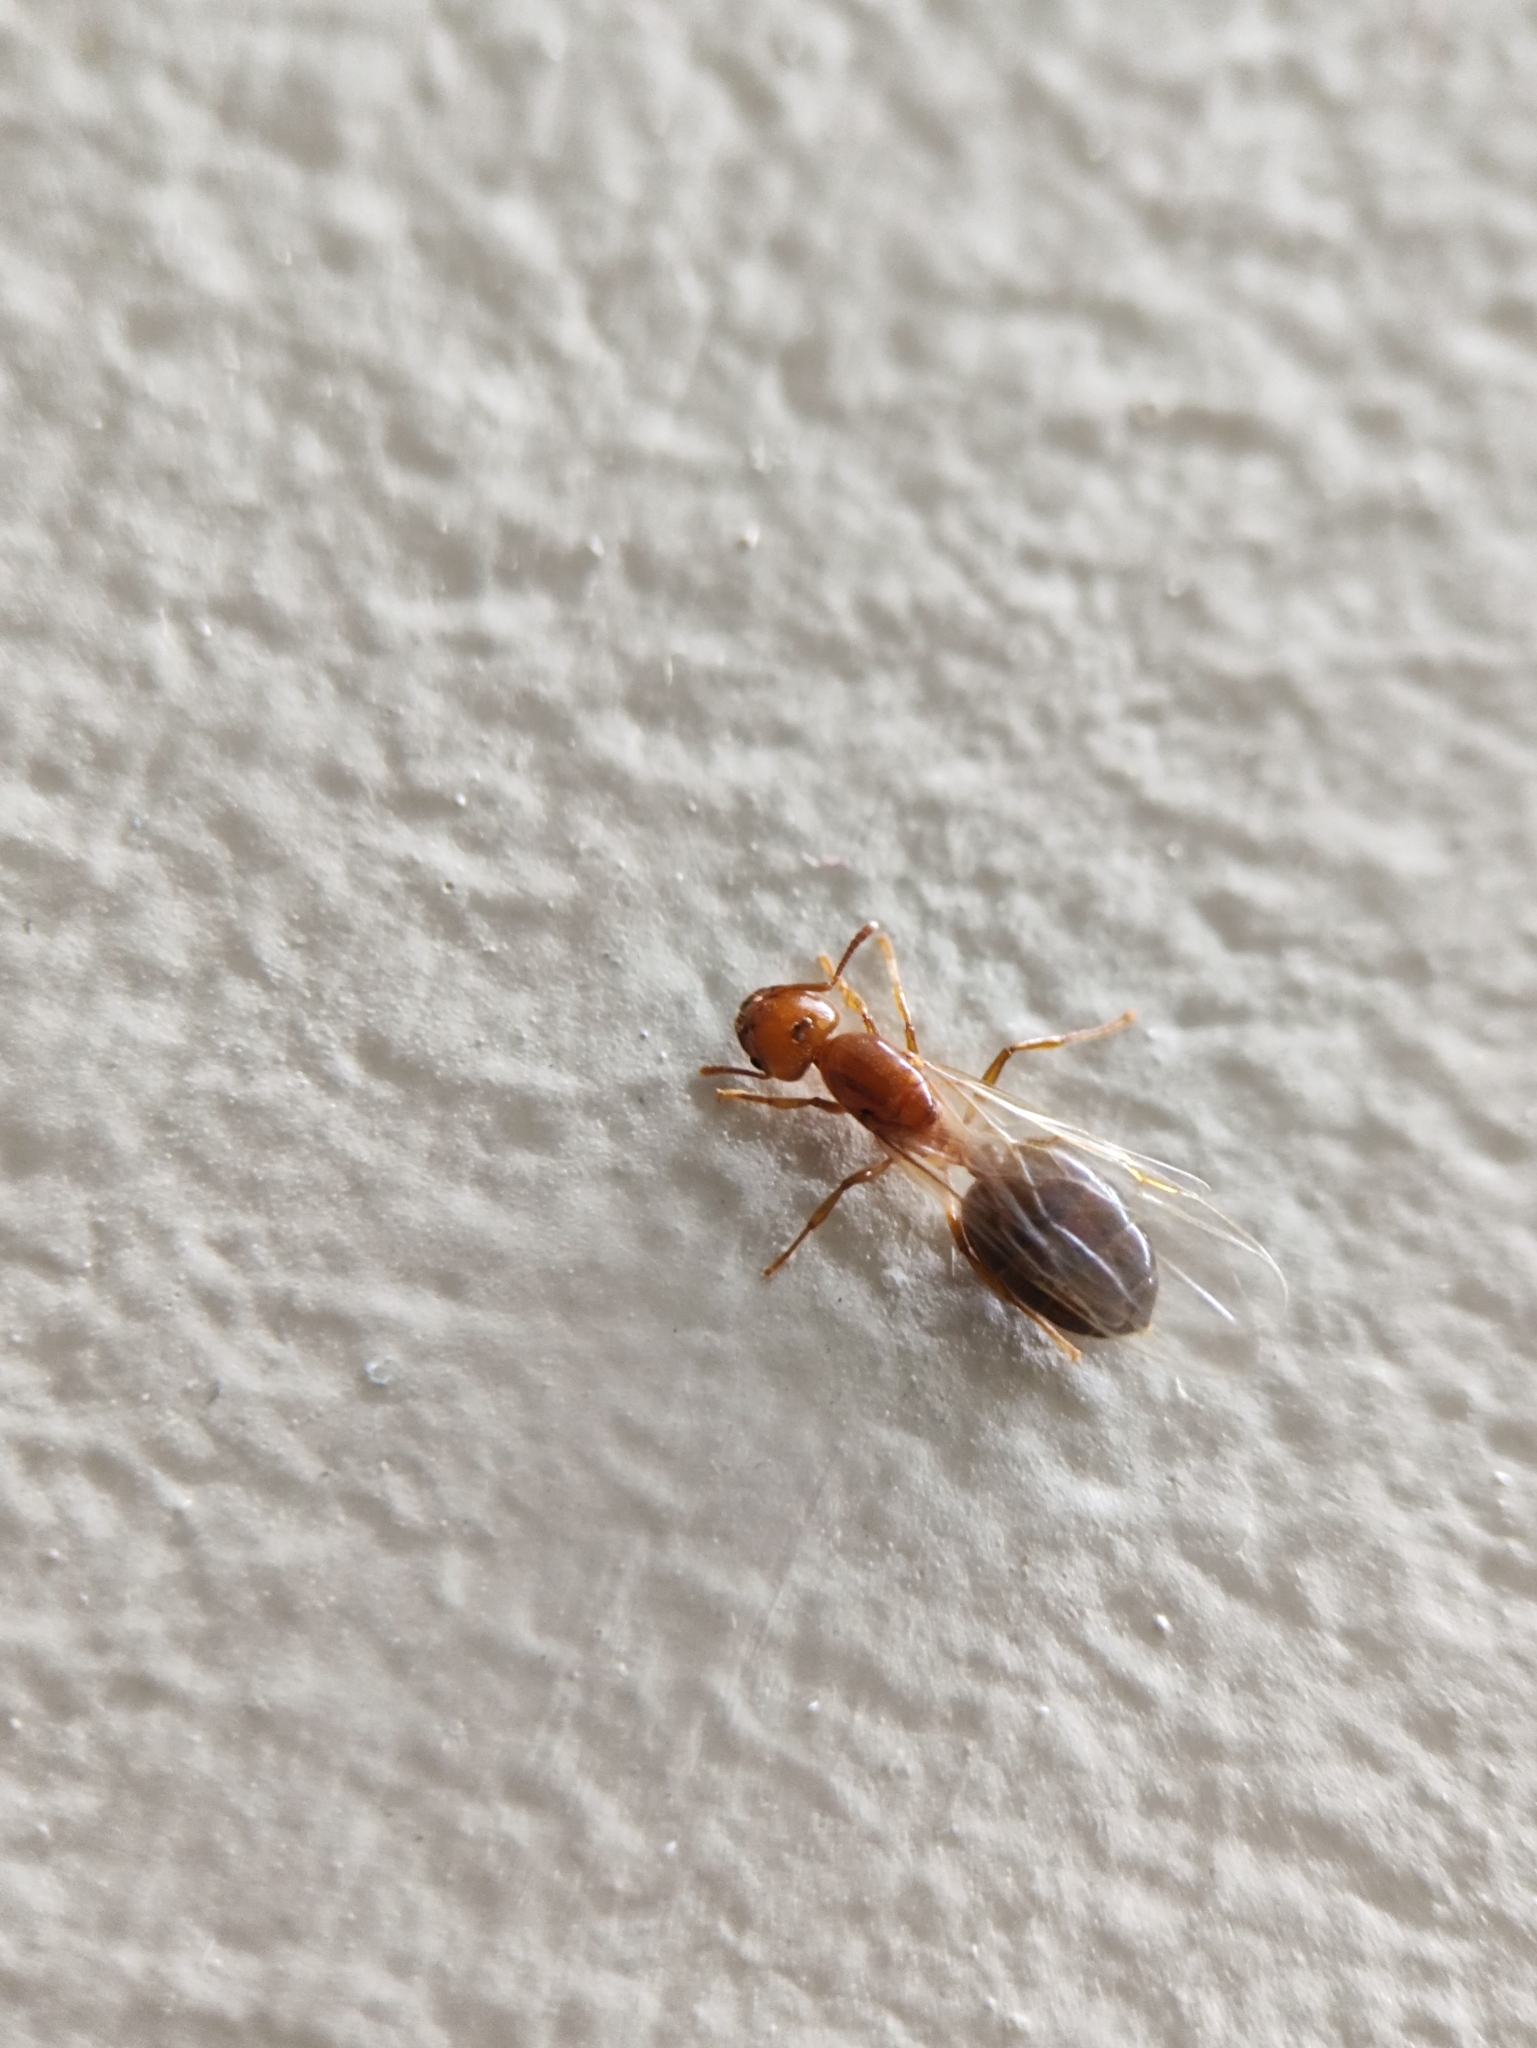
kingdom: Animalia
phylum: Arthropoda
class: Insecta
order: Hymenoptera
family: Formicidae
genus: Crematogaster
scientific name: Crematogaster
